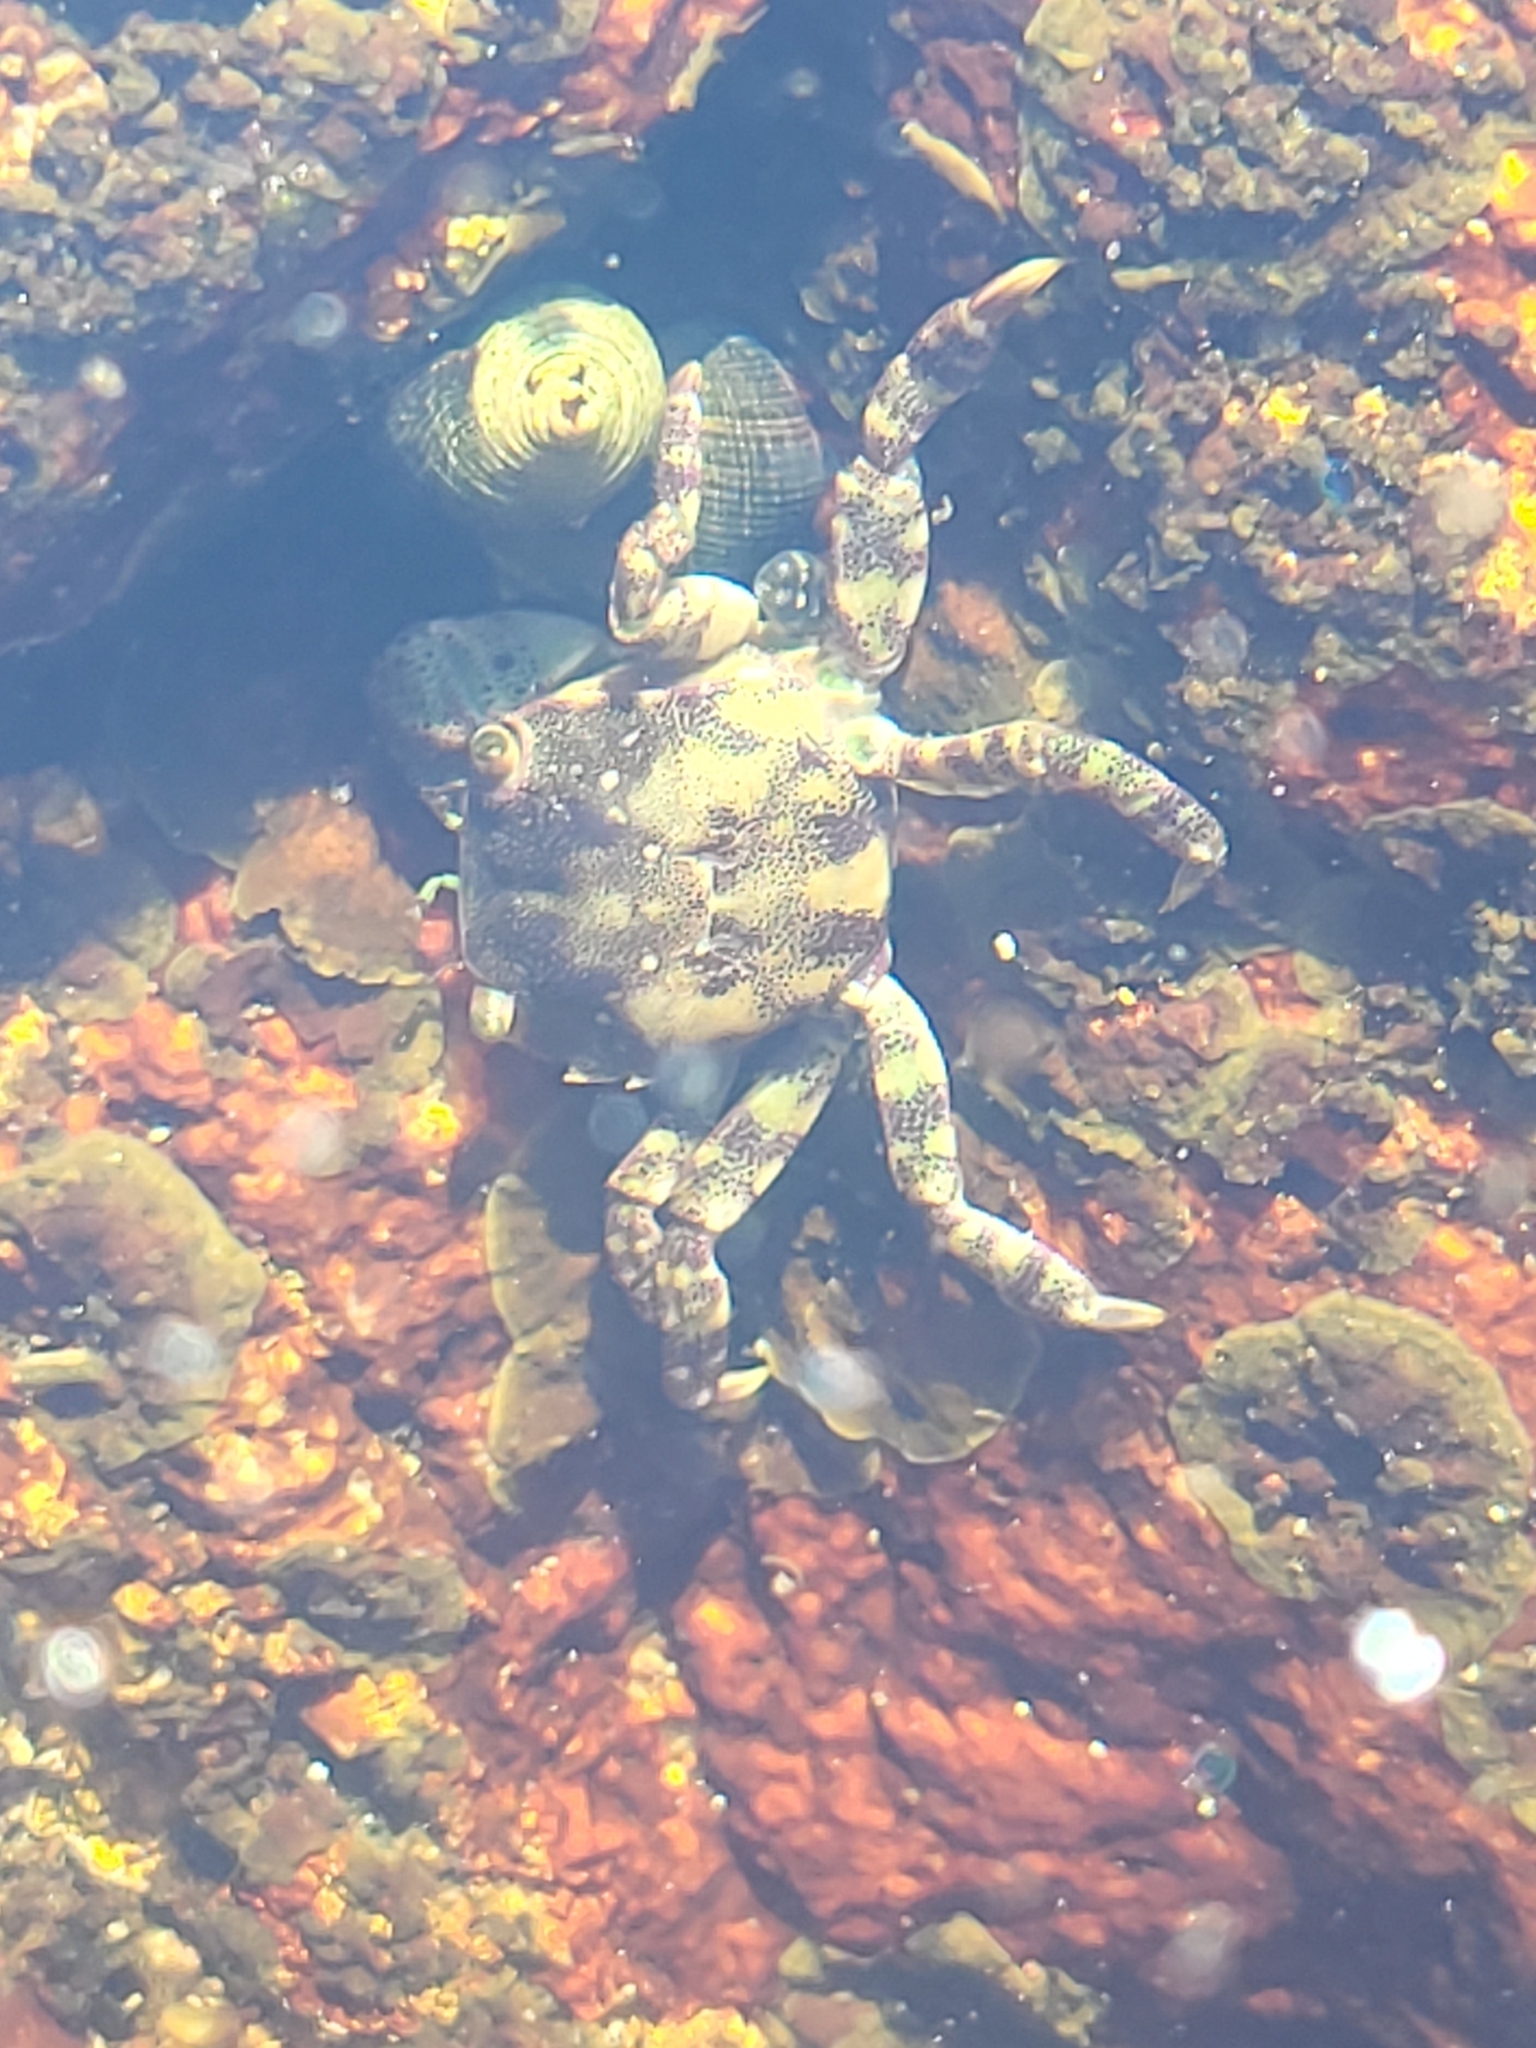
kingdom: Animalia
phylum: Arthropoda
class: Malacostraca
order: Decapoda
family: Varunidae
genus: Hemigrapsus
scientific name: Hemigrapsus sanguineus
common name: Asian shore crab
